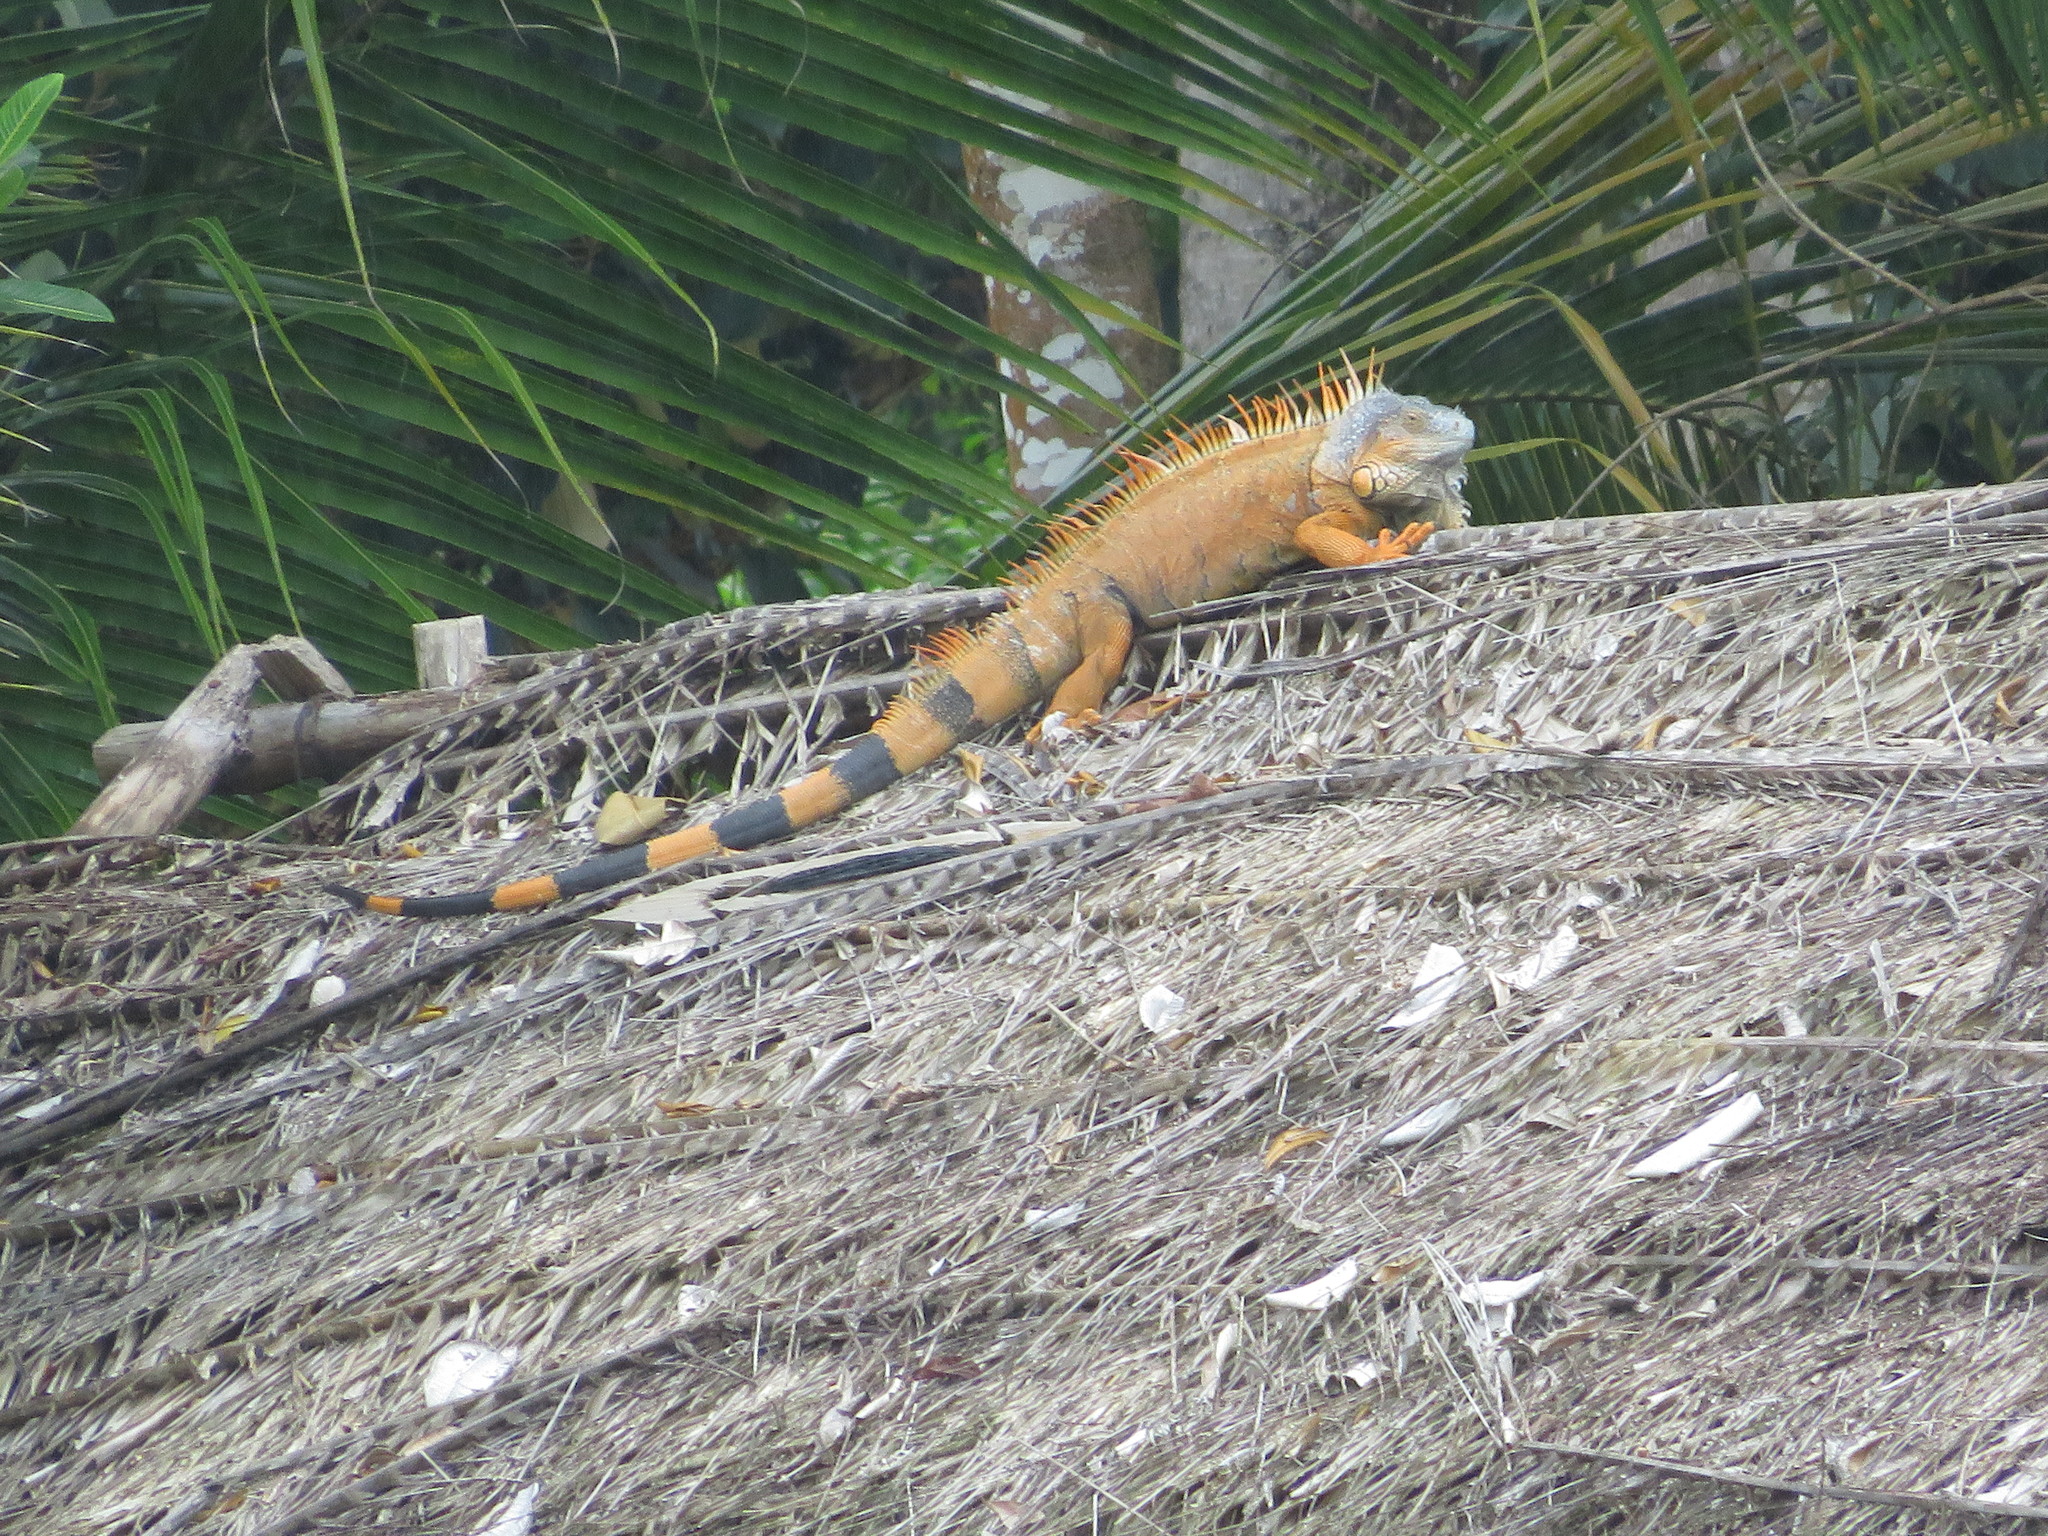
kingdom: Animalia
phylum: Chordata
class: Squamata
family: Iguanidae
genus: Iguana
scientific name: Iguana iguana
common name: Green iguana
